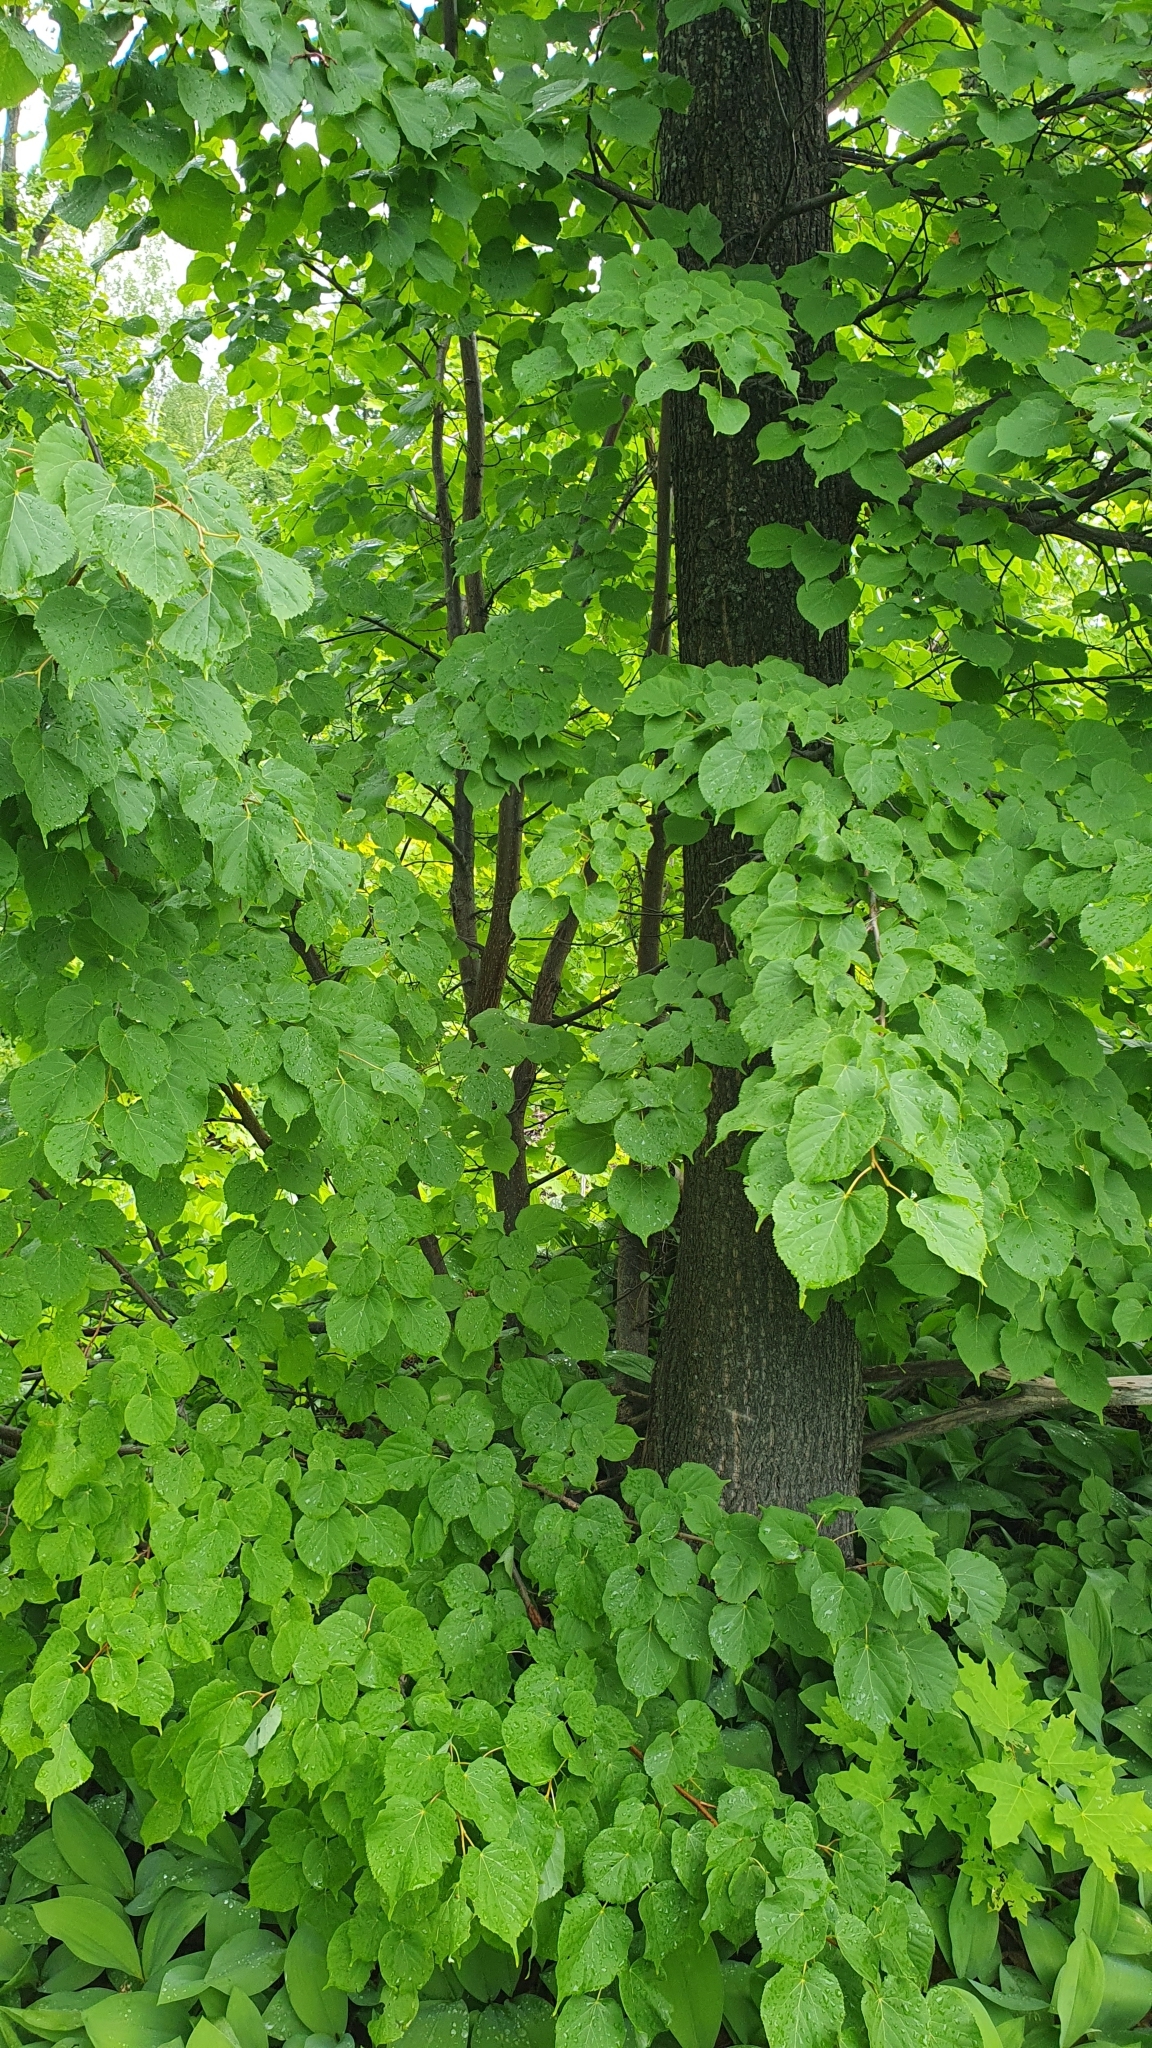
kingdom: Plantae
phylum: Tracheophyta
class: Magnoliopsida
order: Malvales
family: Malvaceae
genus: Tilia
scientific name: Tilia cordata
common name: Small-leaved lime
